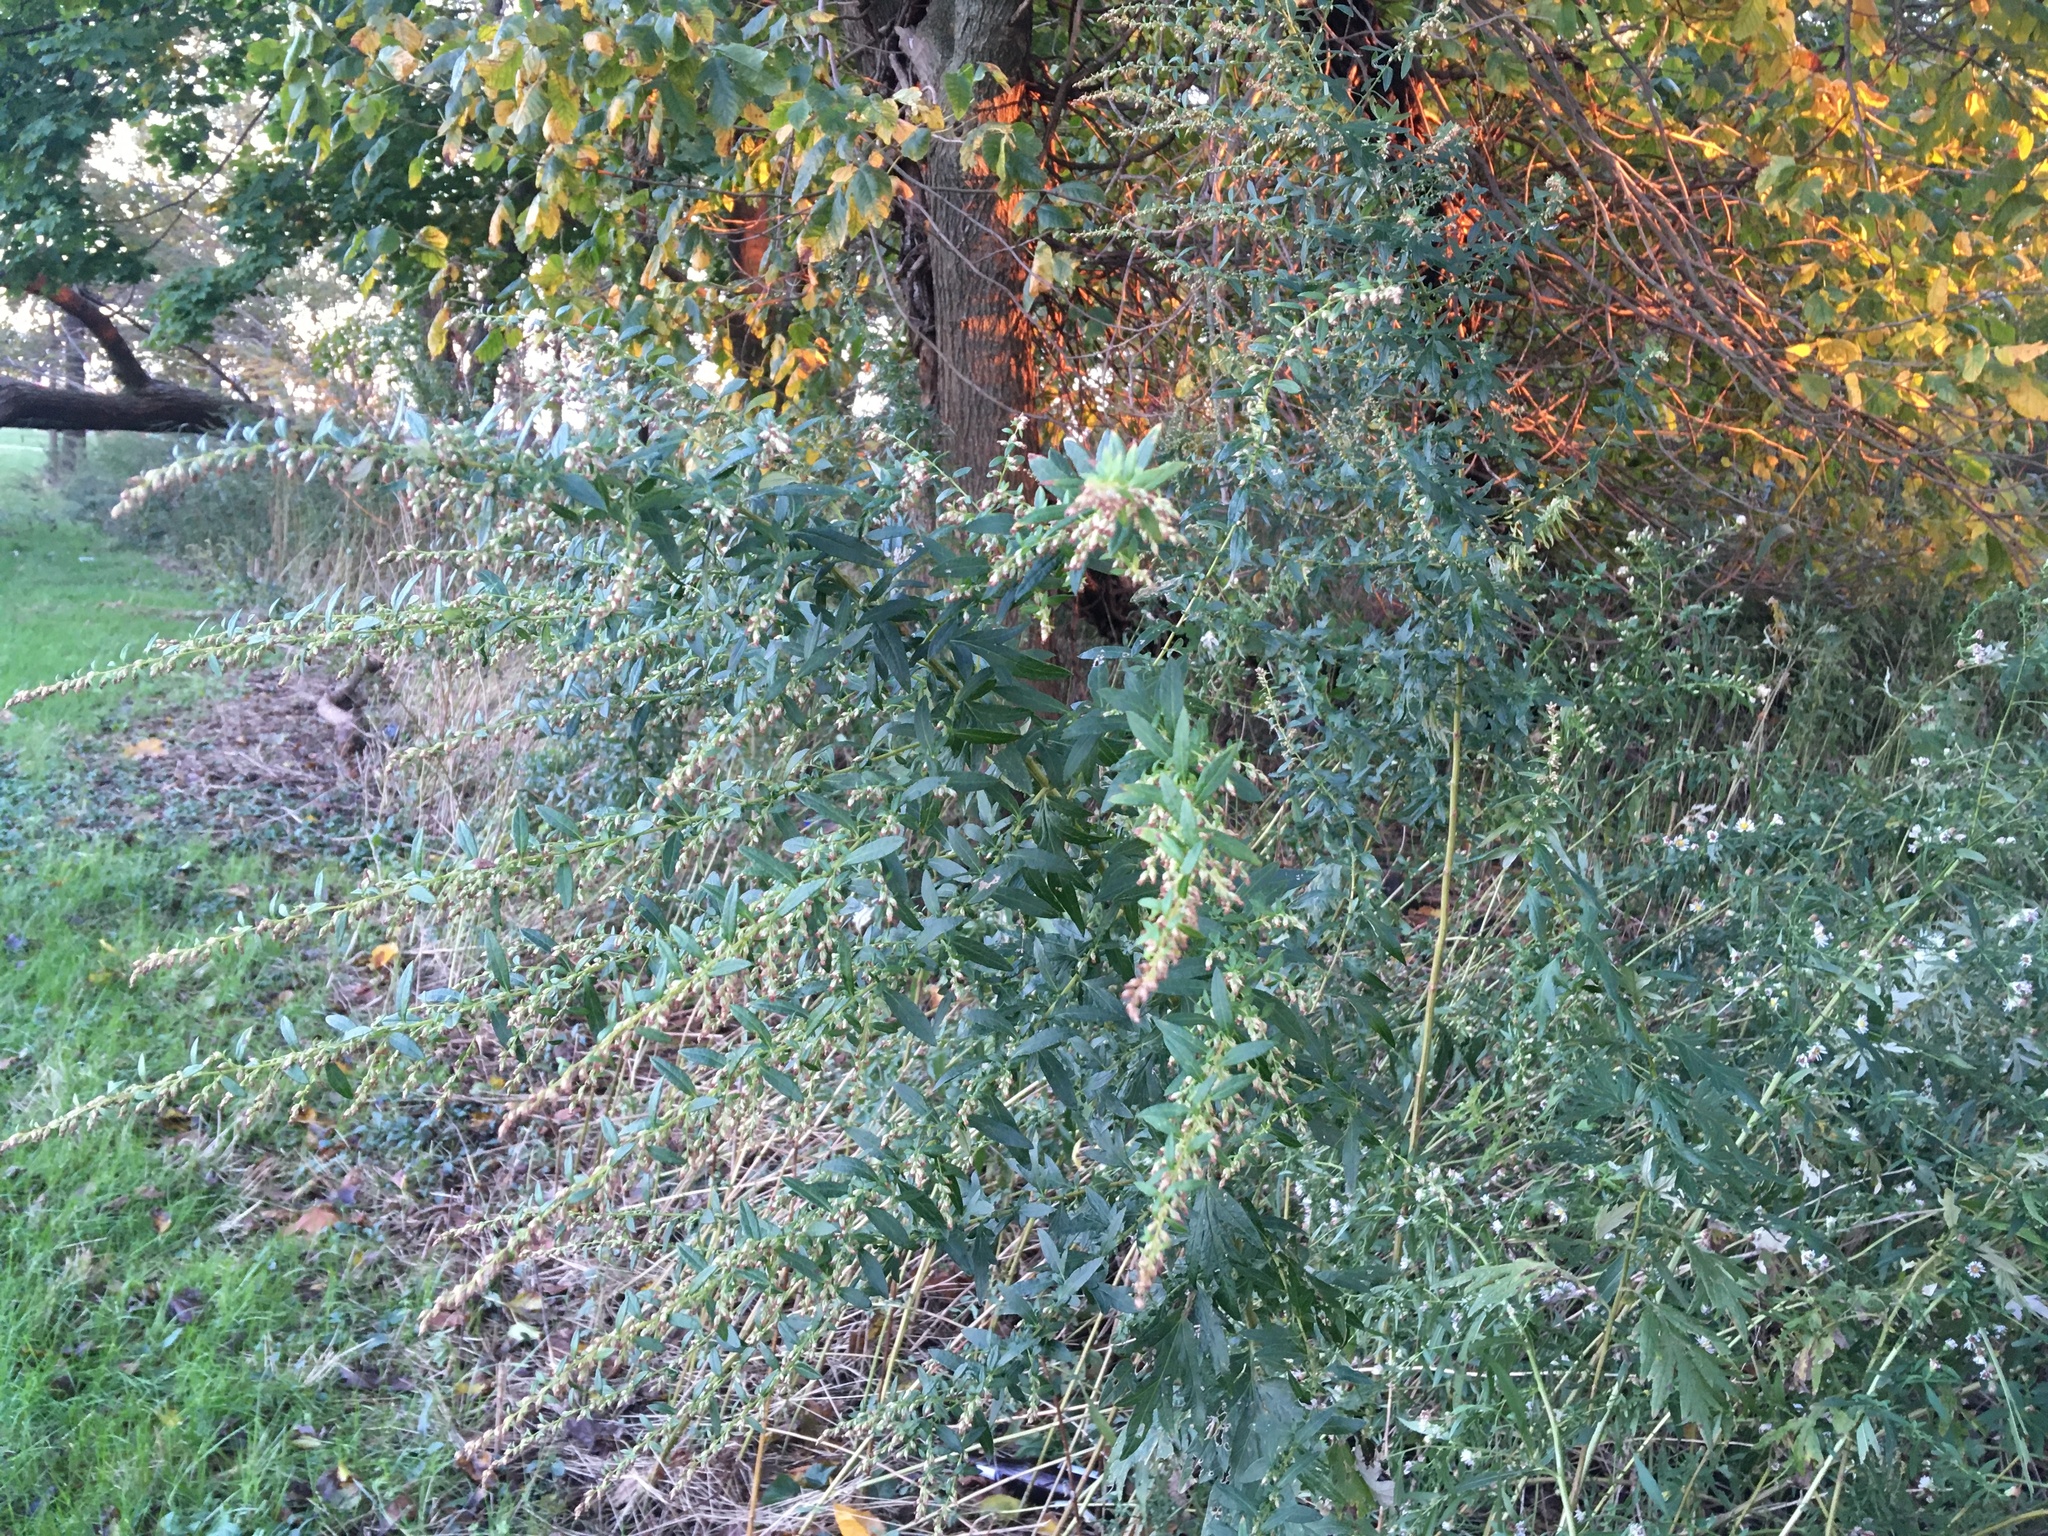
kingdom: Plantae
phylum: Tracheophyta
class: Magnoliopsida
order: Asterales
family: Asteraceae
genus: Artemisia
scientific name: Artemisia vulgaris
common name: Mugwort
